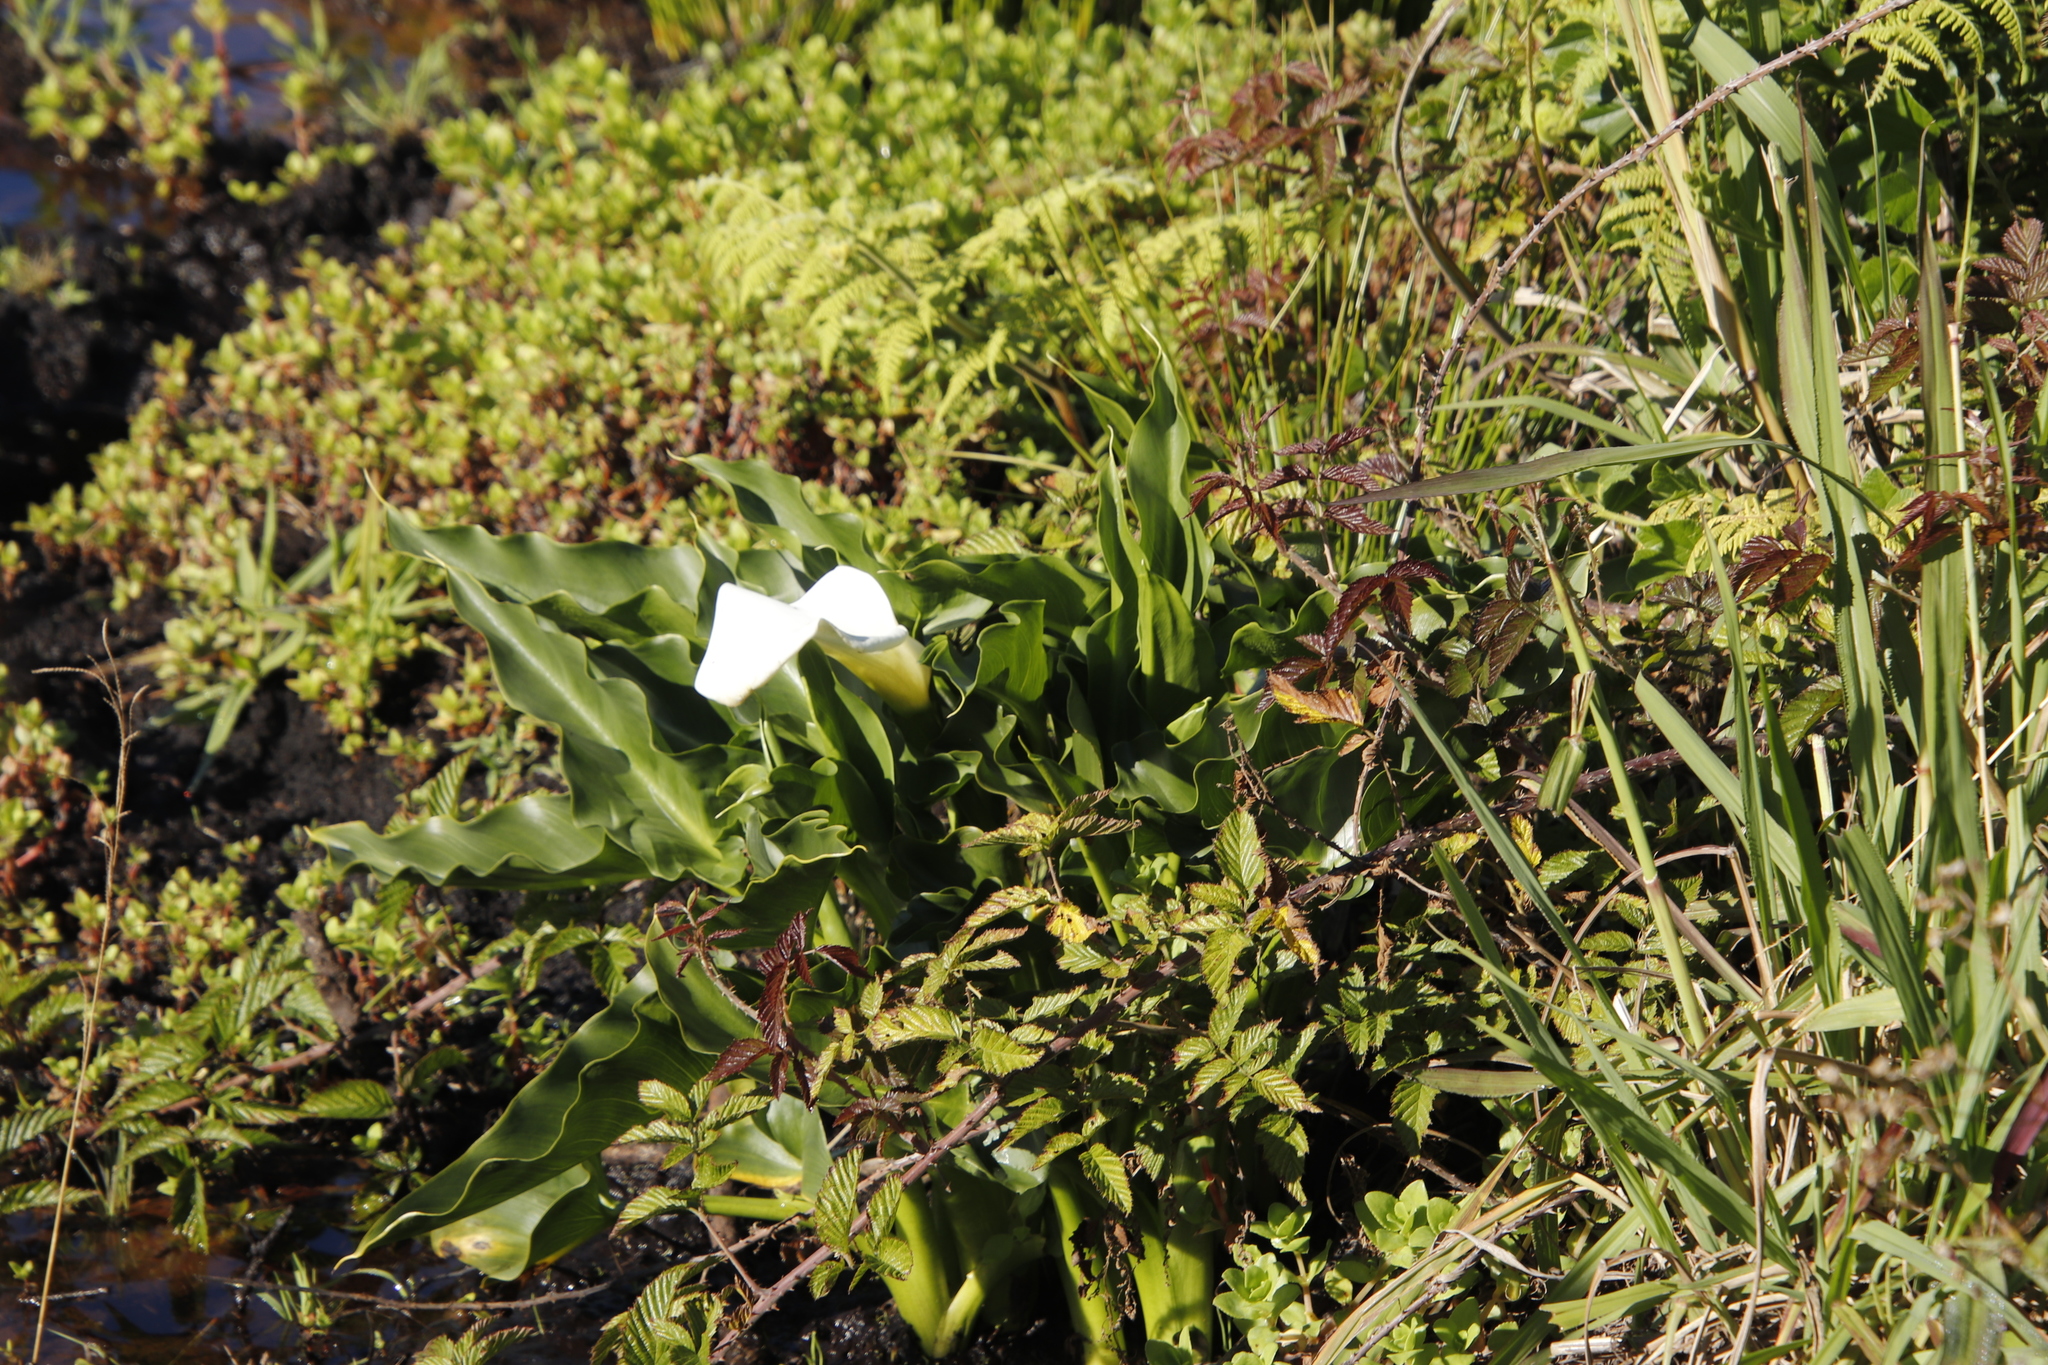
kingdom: Plantae
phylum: Tracheophyta
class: Liliopsida
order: Alismatales
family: Araceae
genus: Zantedeschia
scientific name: Zantedeschia aethiopica
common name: Altar-lily
